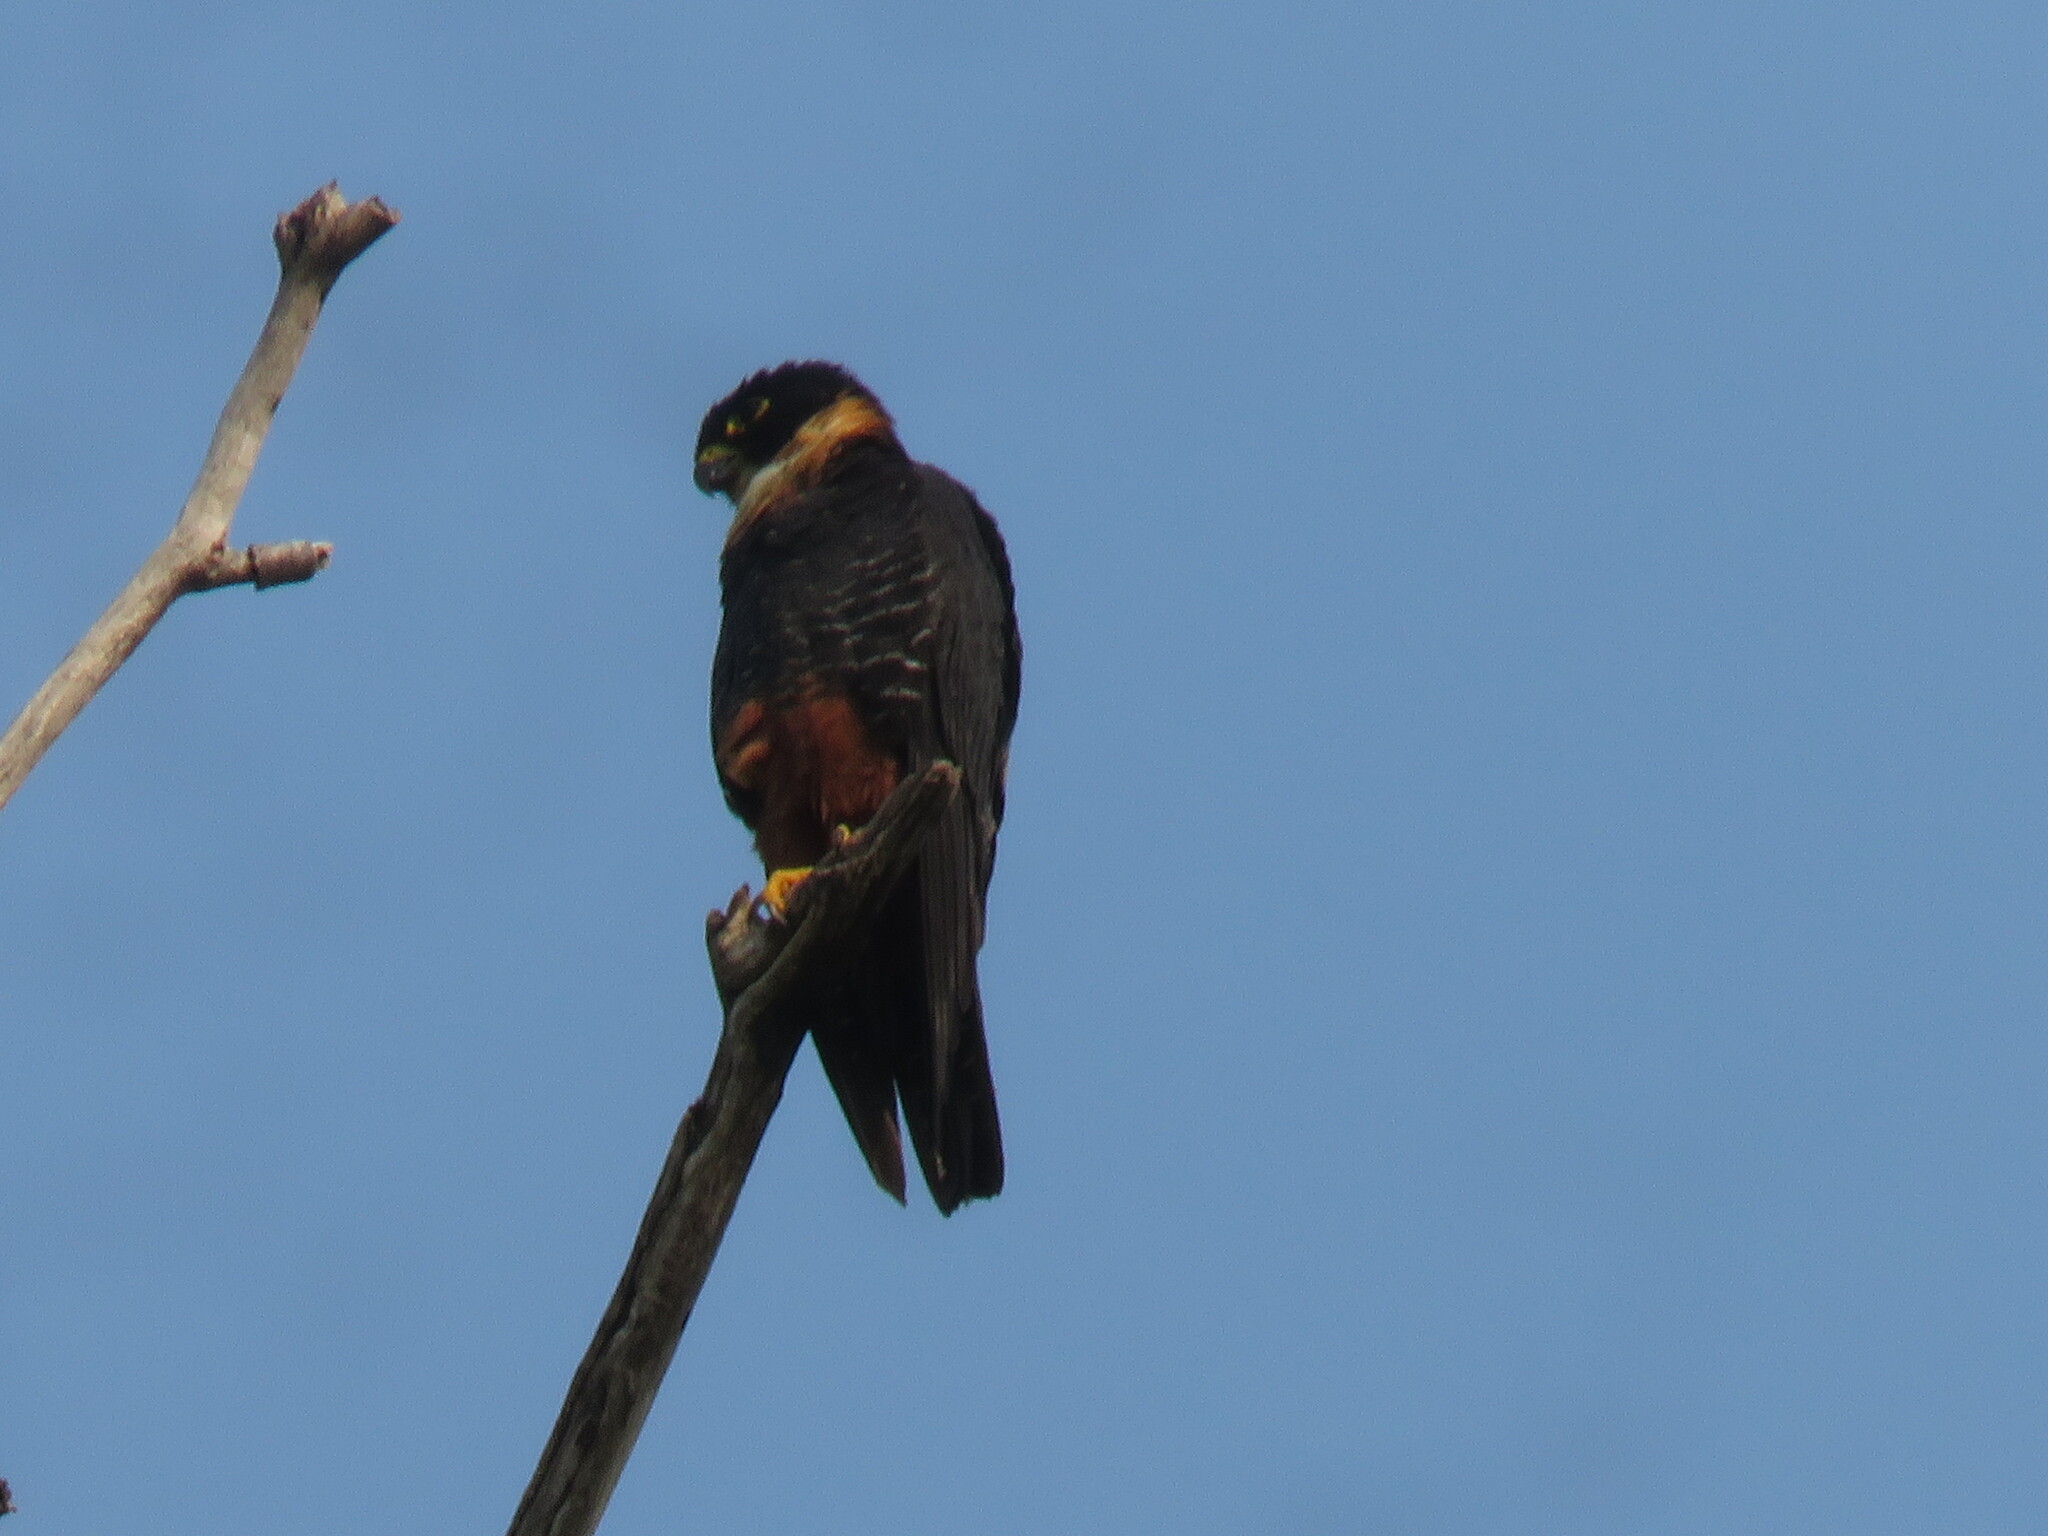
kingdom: Animalia
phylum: Chordata
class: Aves
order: Falconiformes
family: Falconidae
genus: Falco
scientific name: Falco rufigularis
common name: Bat falcon
